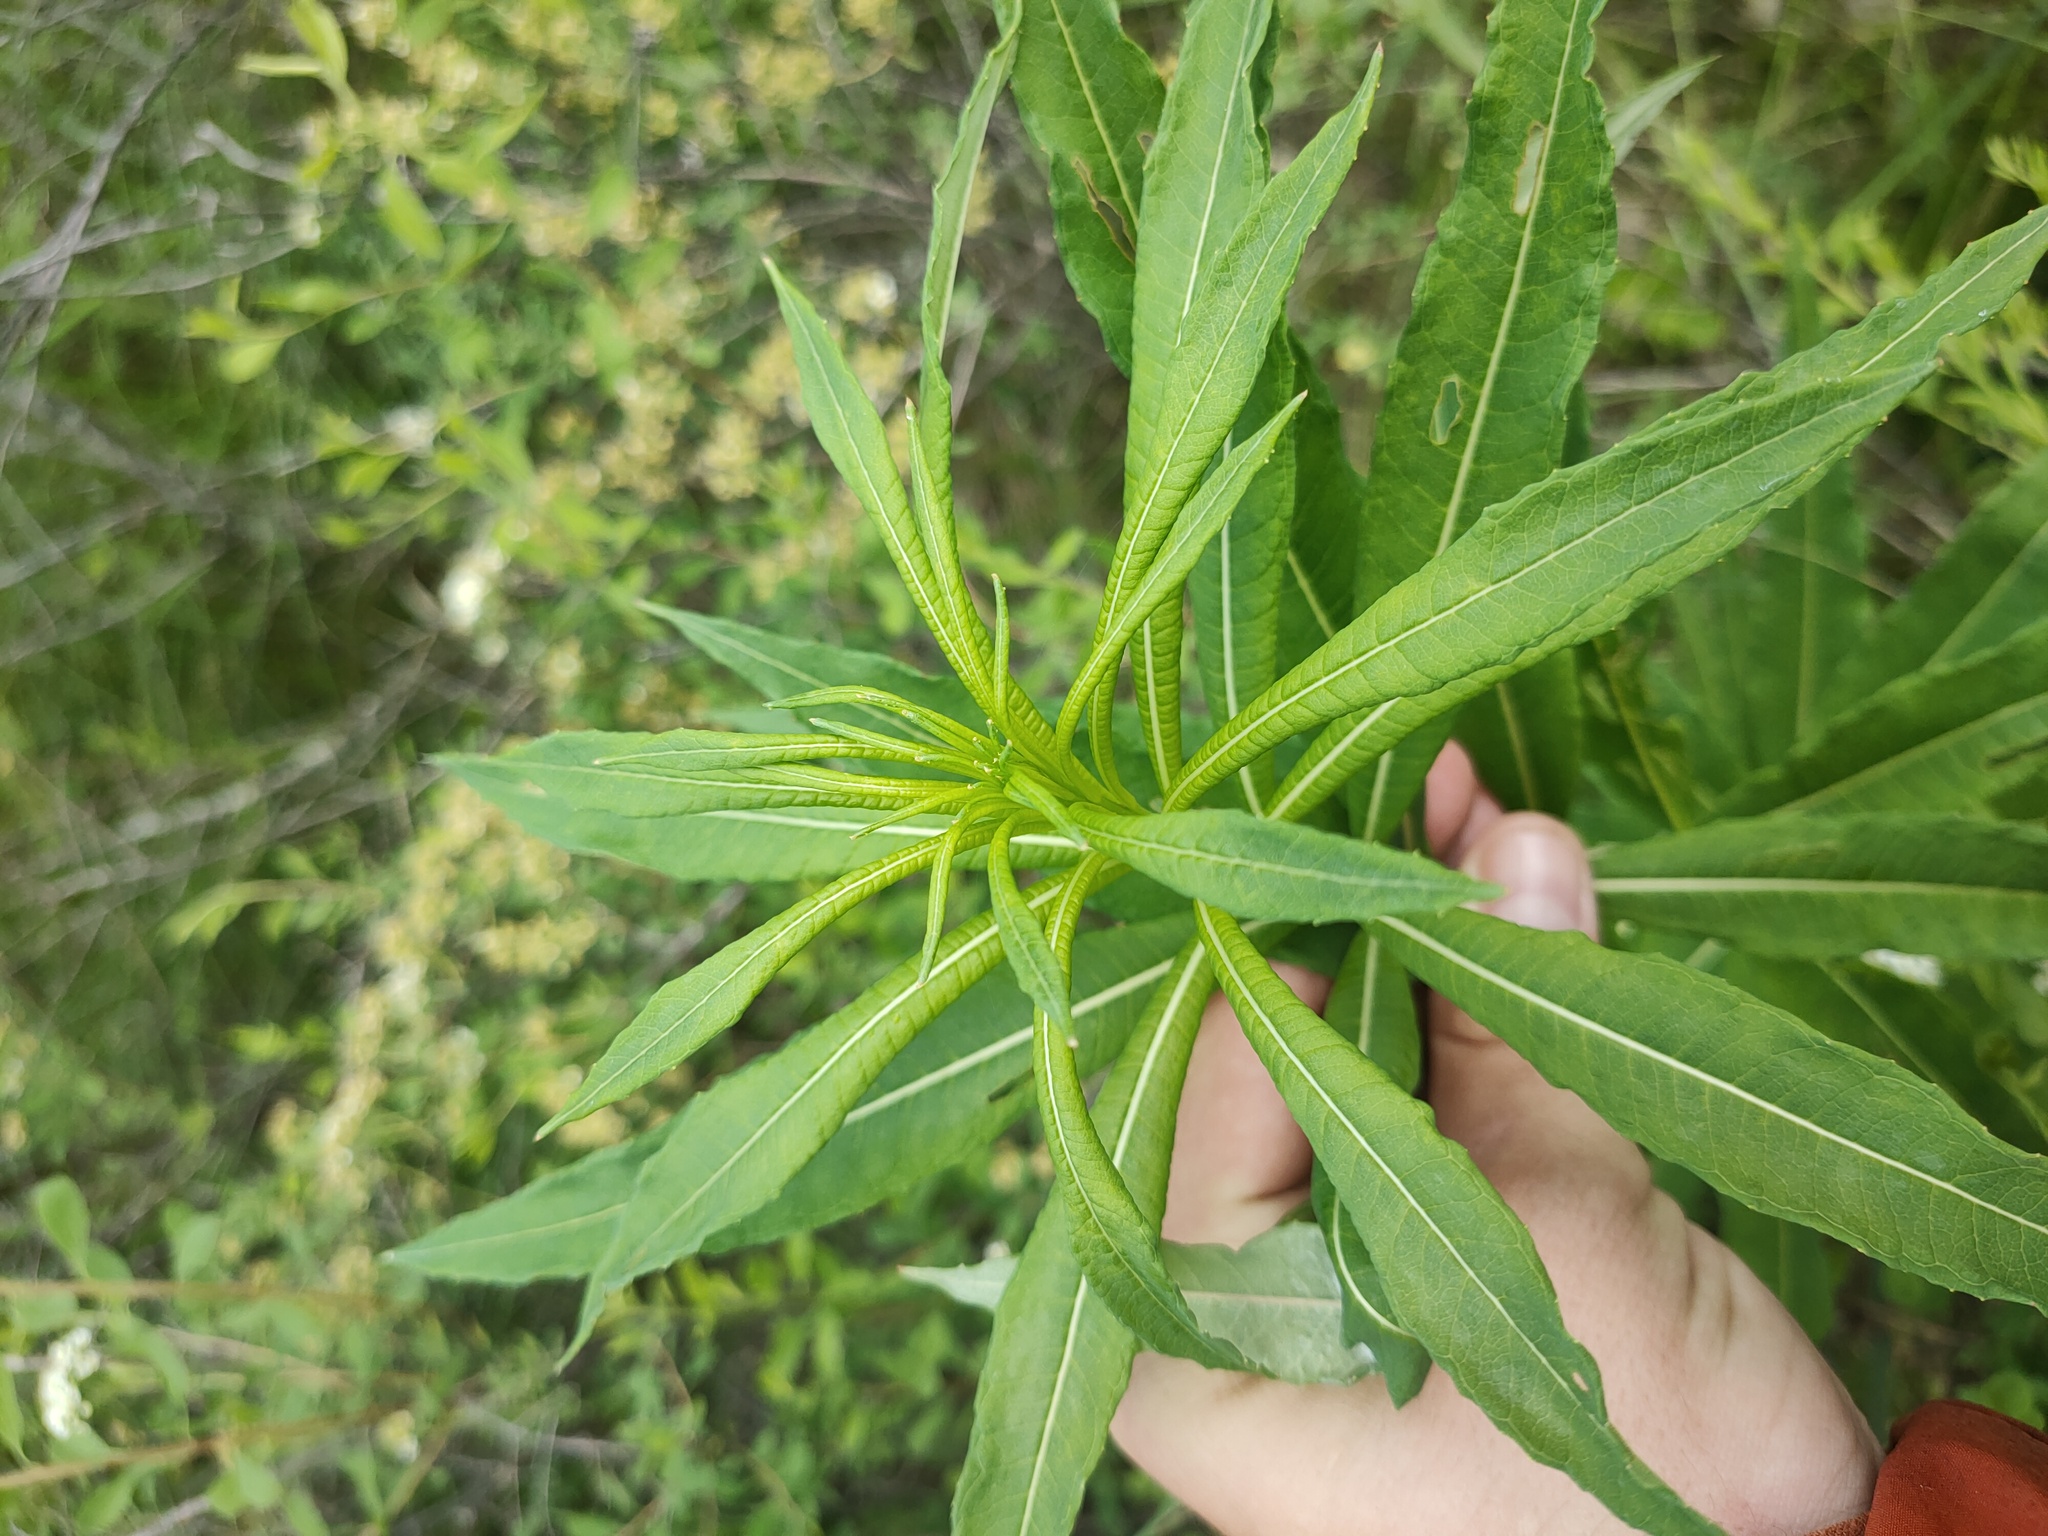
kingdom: Plantae
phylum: Tracheophyta
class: Magnoliopsida
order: Myrtales
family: Onagraceae
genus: Chamaenerion
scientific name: Chamaenerion angustifolium
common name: Fireweed
